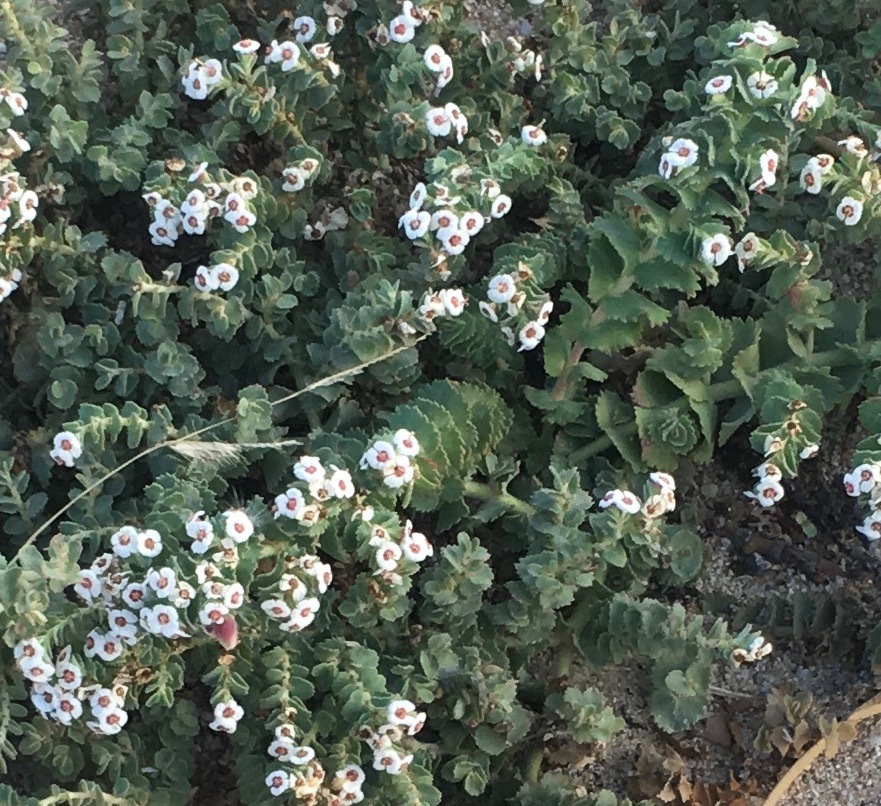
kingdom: Plantae
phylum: Tracheophyta
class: Magnoliopsida
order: Malpighiales
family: Euphorbiaceae
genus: Euphorbia
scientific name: Euphorbia leucophylla
